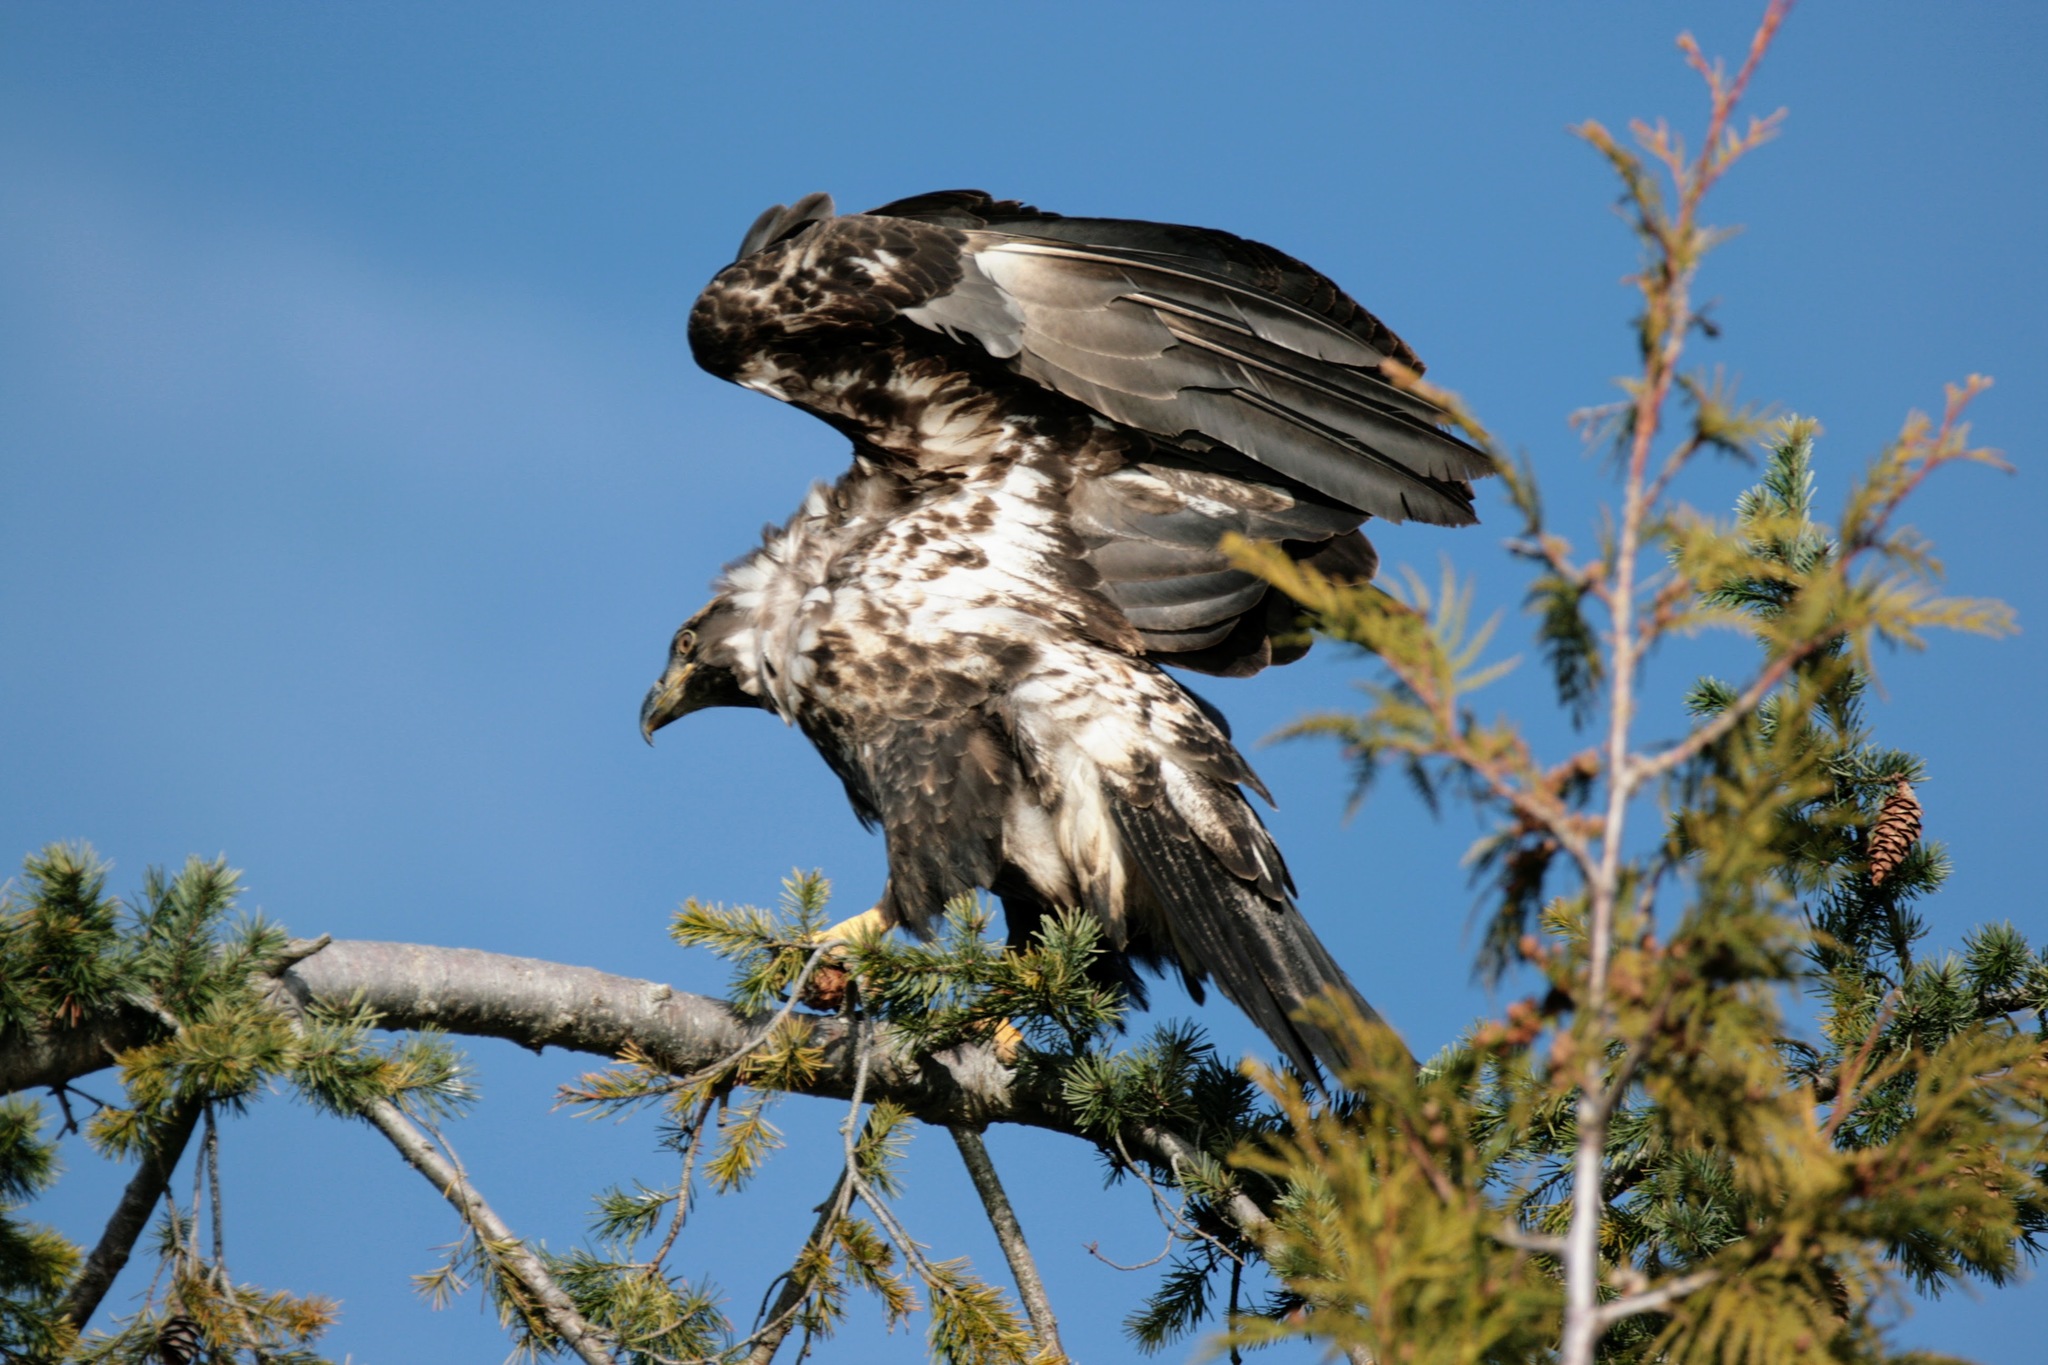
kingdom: Animalia
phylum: Chordata
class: Aves
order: Accipitriformes
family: Accipitridae
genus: Haliaeetus
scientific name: Haliaeetus leucocephalus
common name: Bald eagle
